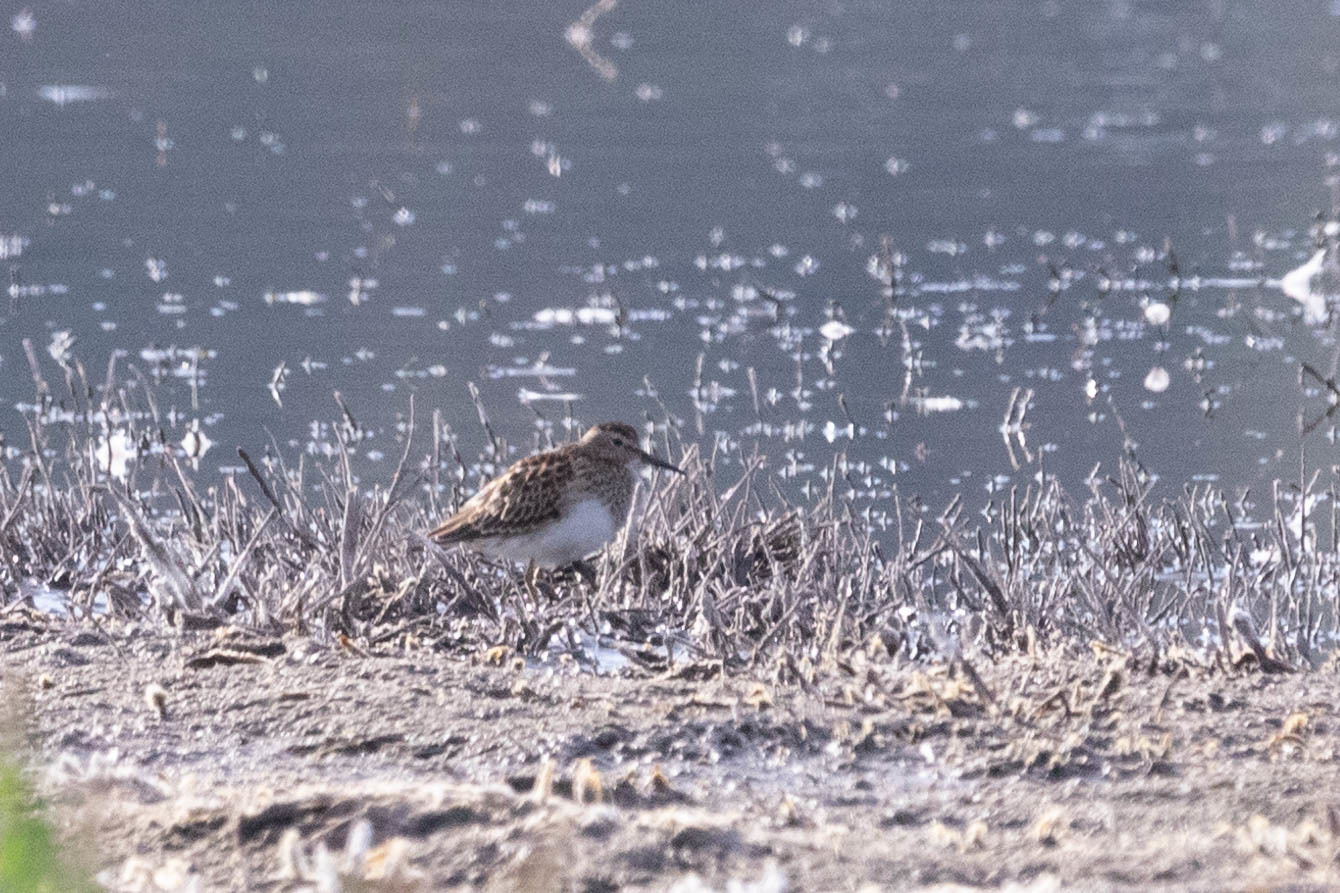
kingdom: Animalia
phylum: Chordata
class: Aves
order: Charadriiformes
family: Scolopacidae
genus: Calidris
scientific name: Calidris melanotos
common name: Pectoral sandpiper
